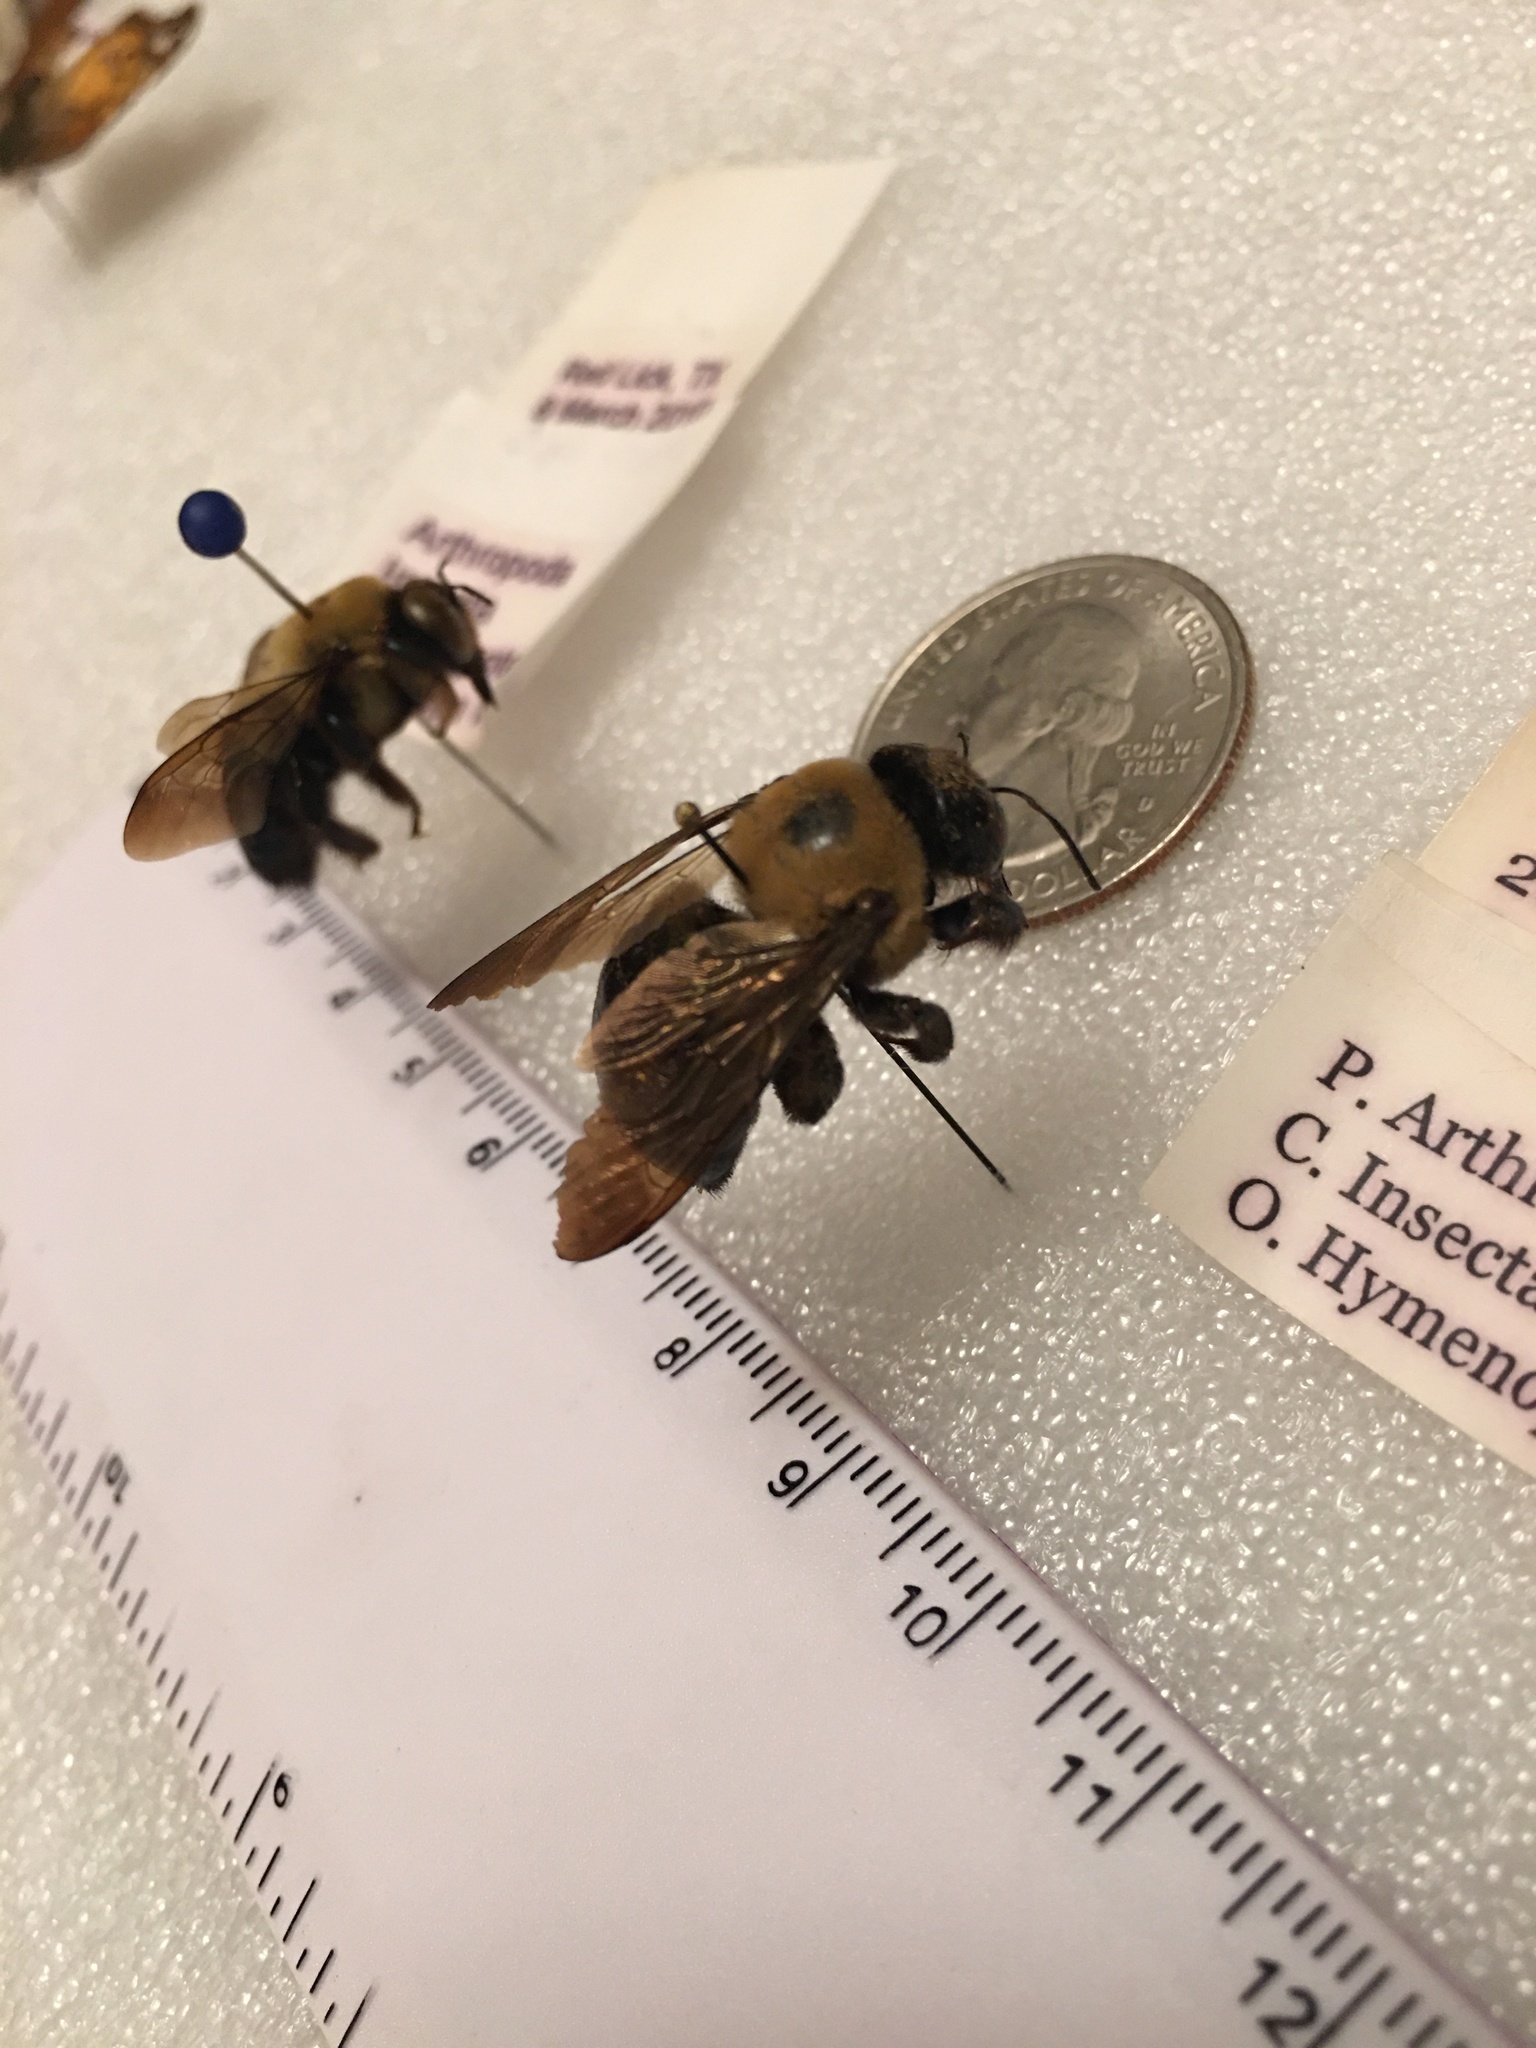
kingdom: Animalia
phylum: Arthropoda
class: Insecta
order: Hymenoptera
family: Apidae
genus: Xylocopa
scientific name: Xylocopa virginica
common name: Carpenter bee
